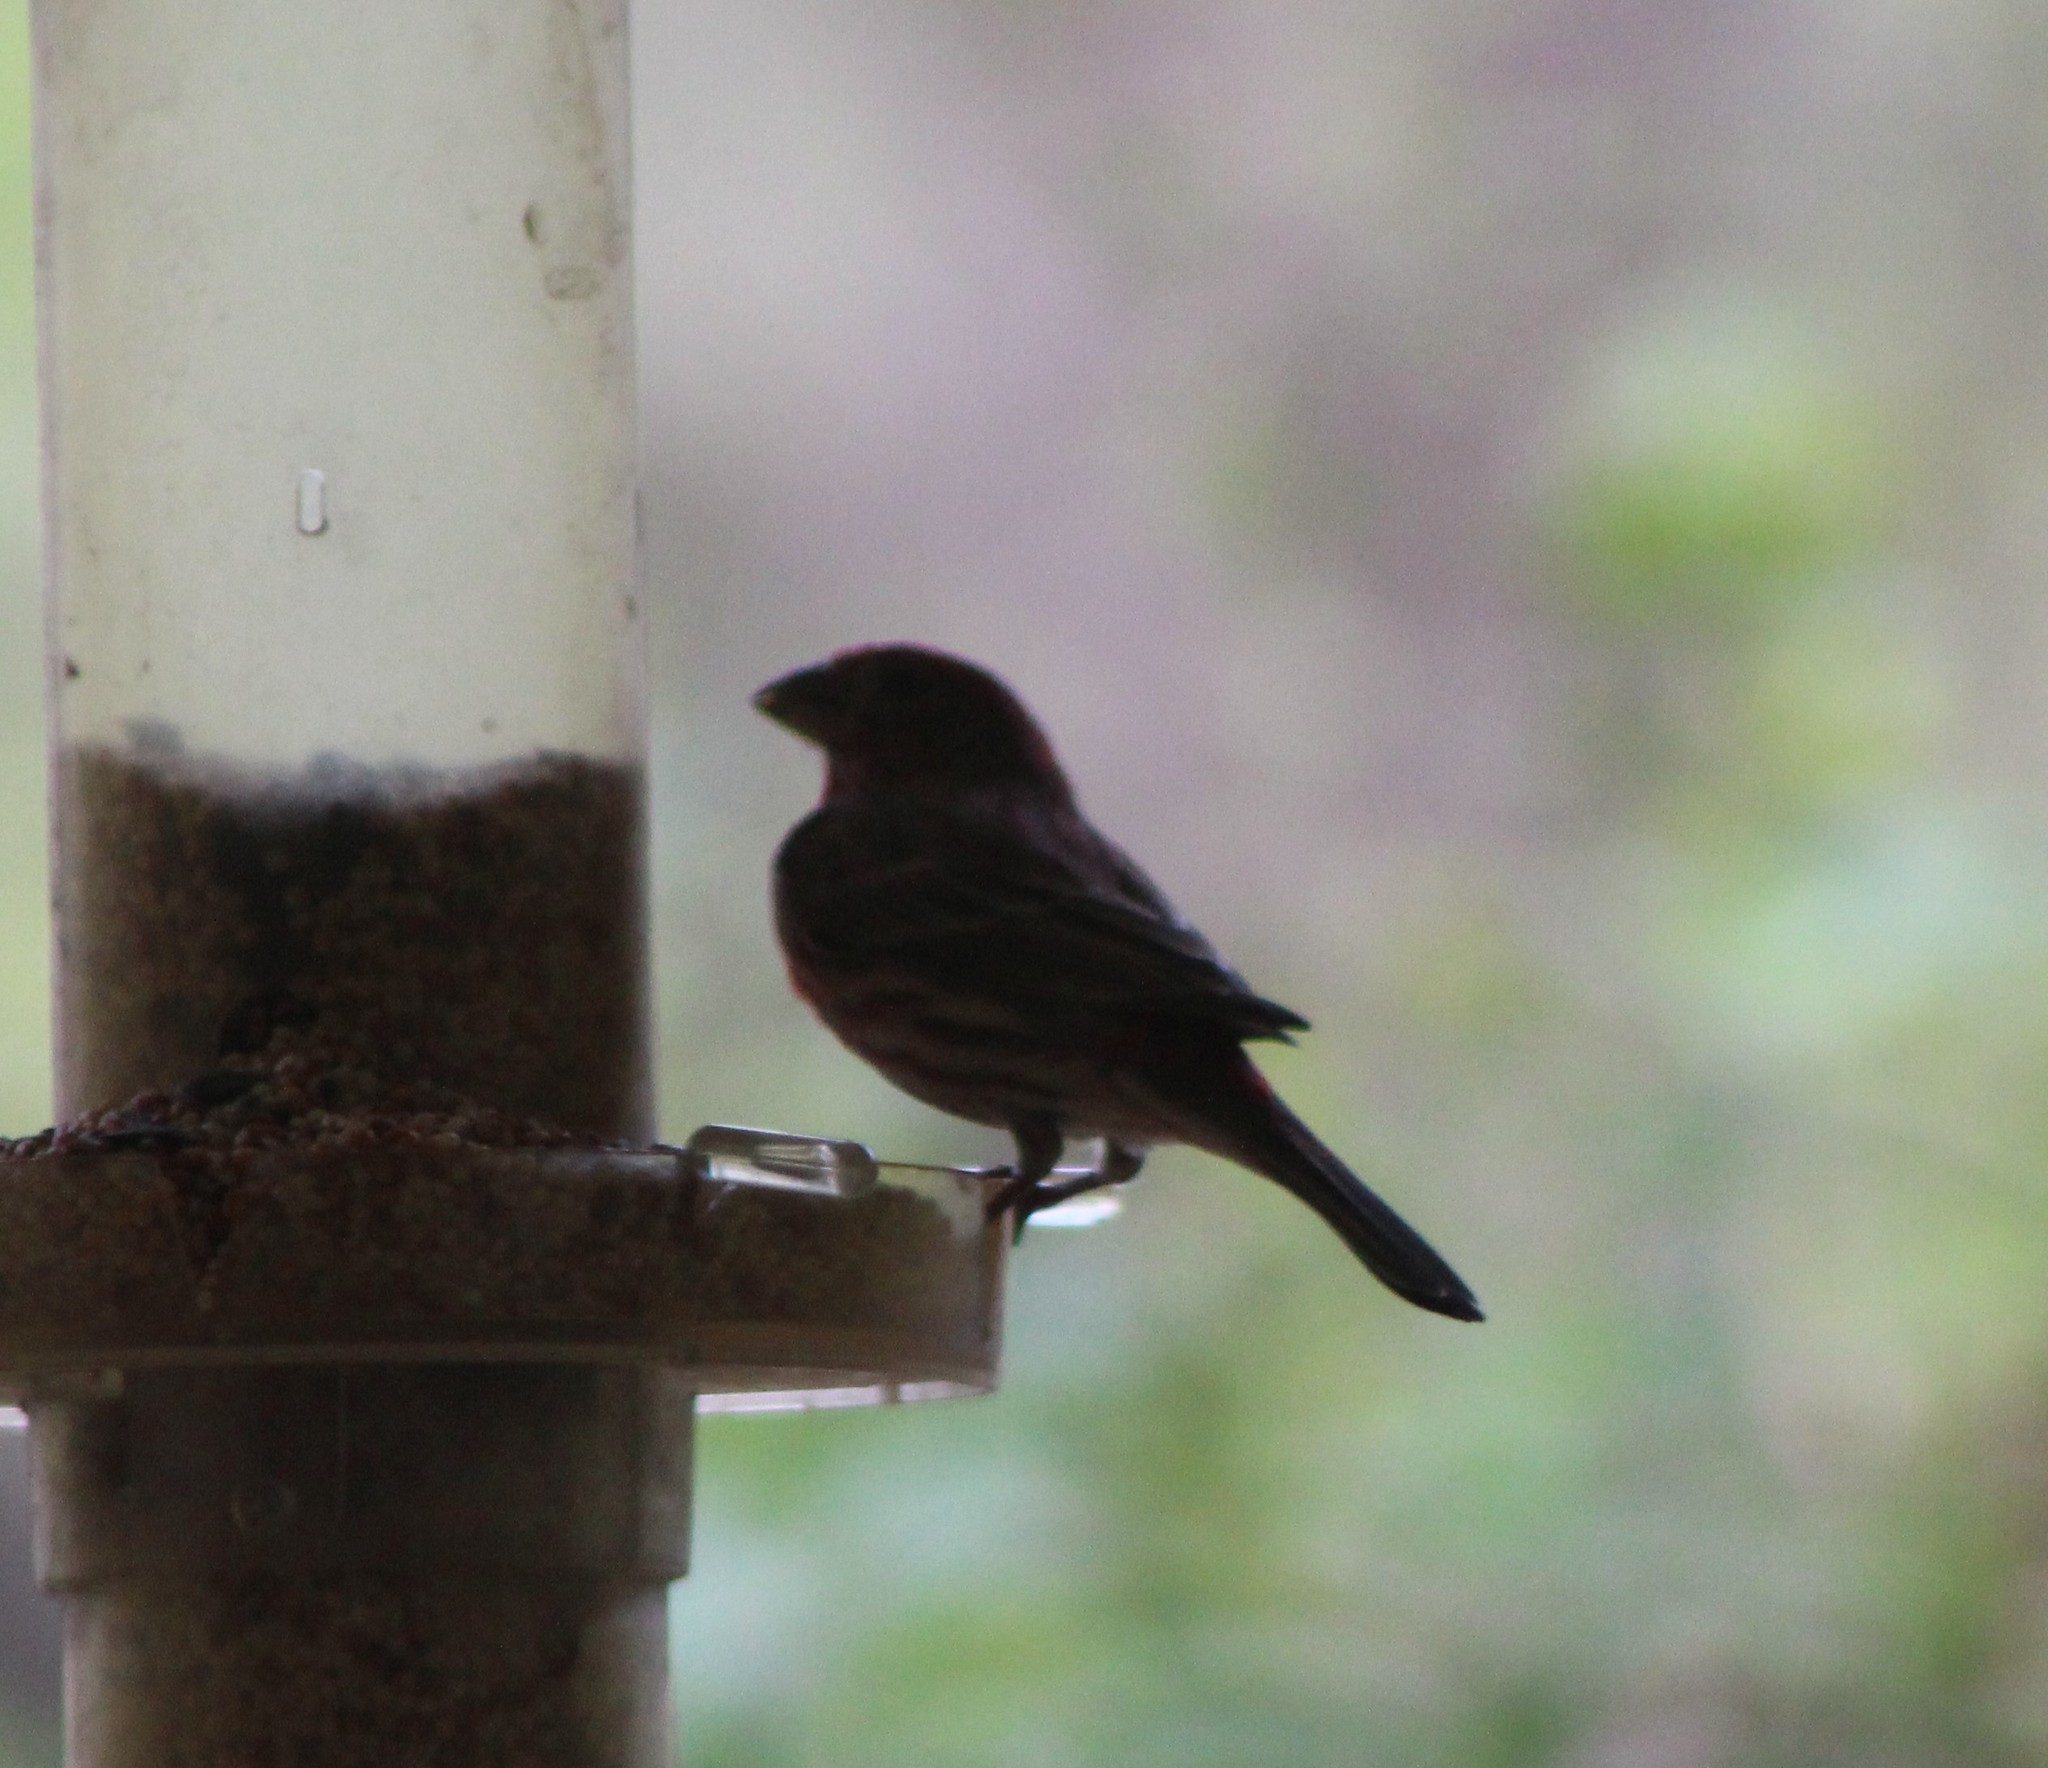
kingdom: Animalia
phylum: Chordata
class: Aves
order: Passeriformes
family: Fringillidae
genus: Haemorhous
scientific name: Haemorhous mexicanus
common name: House finch
